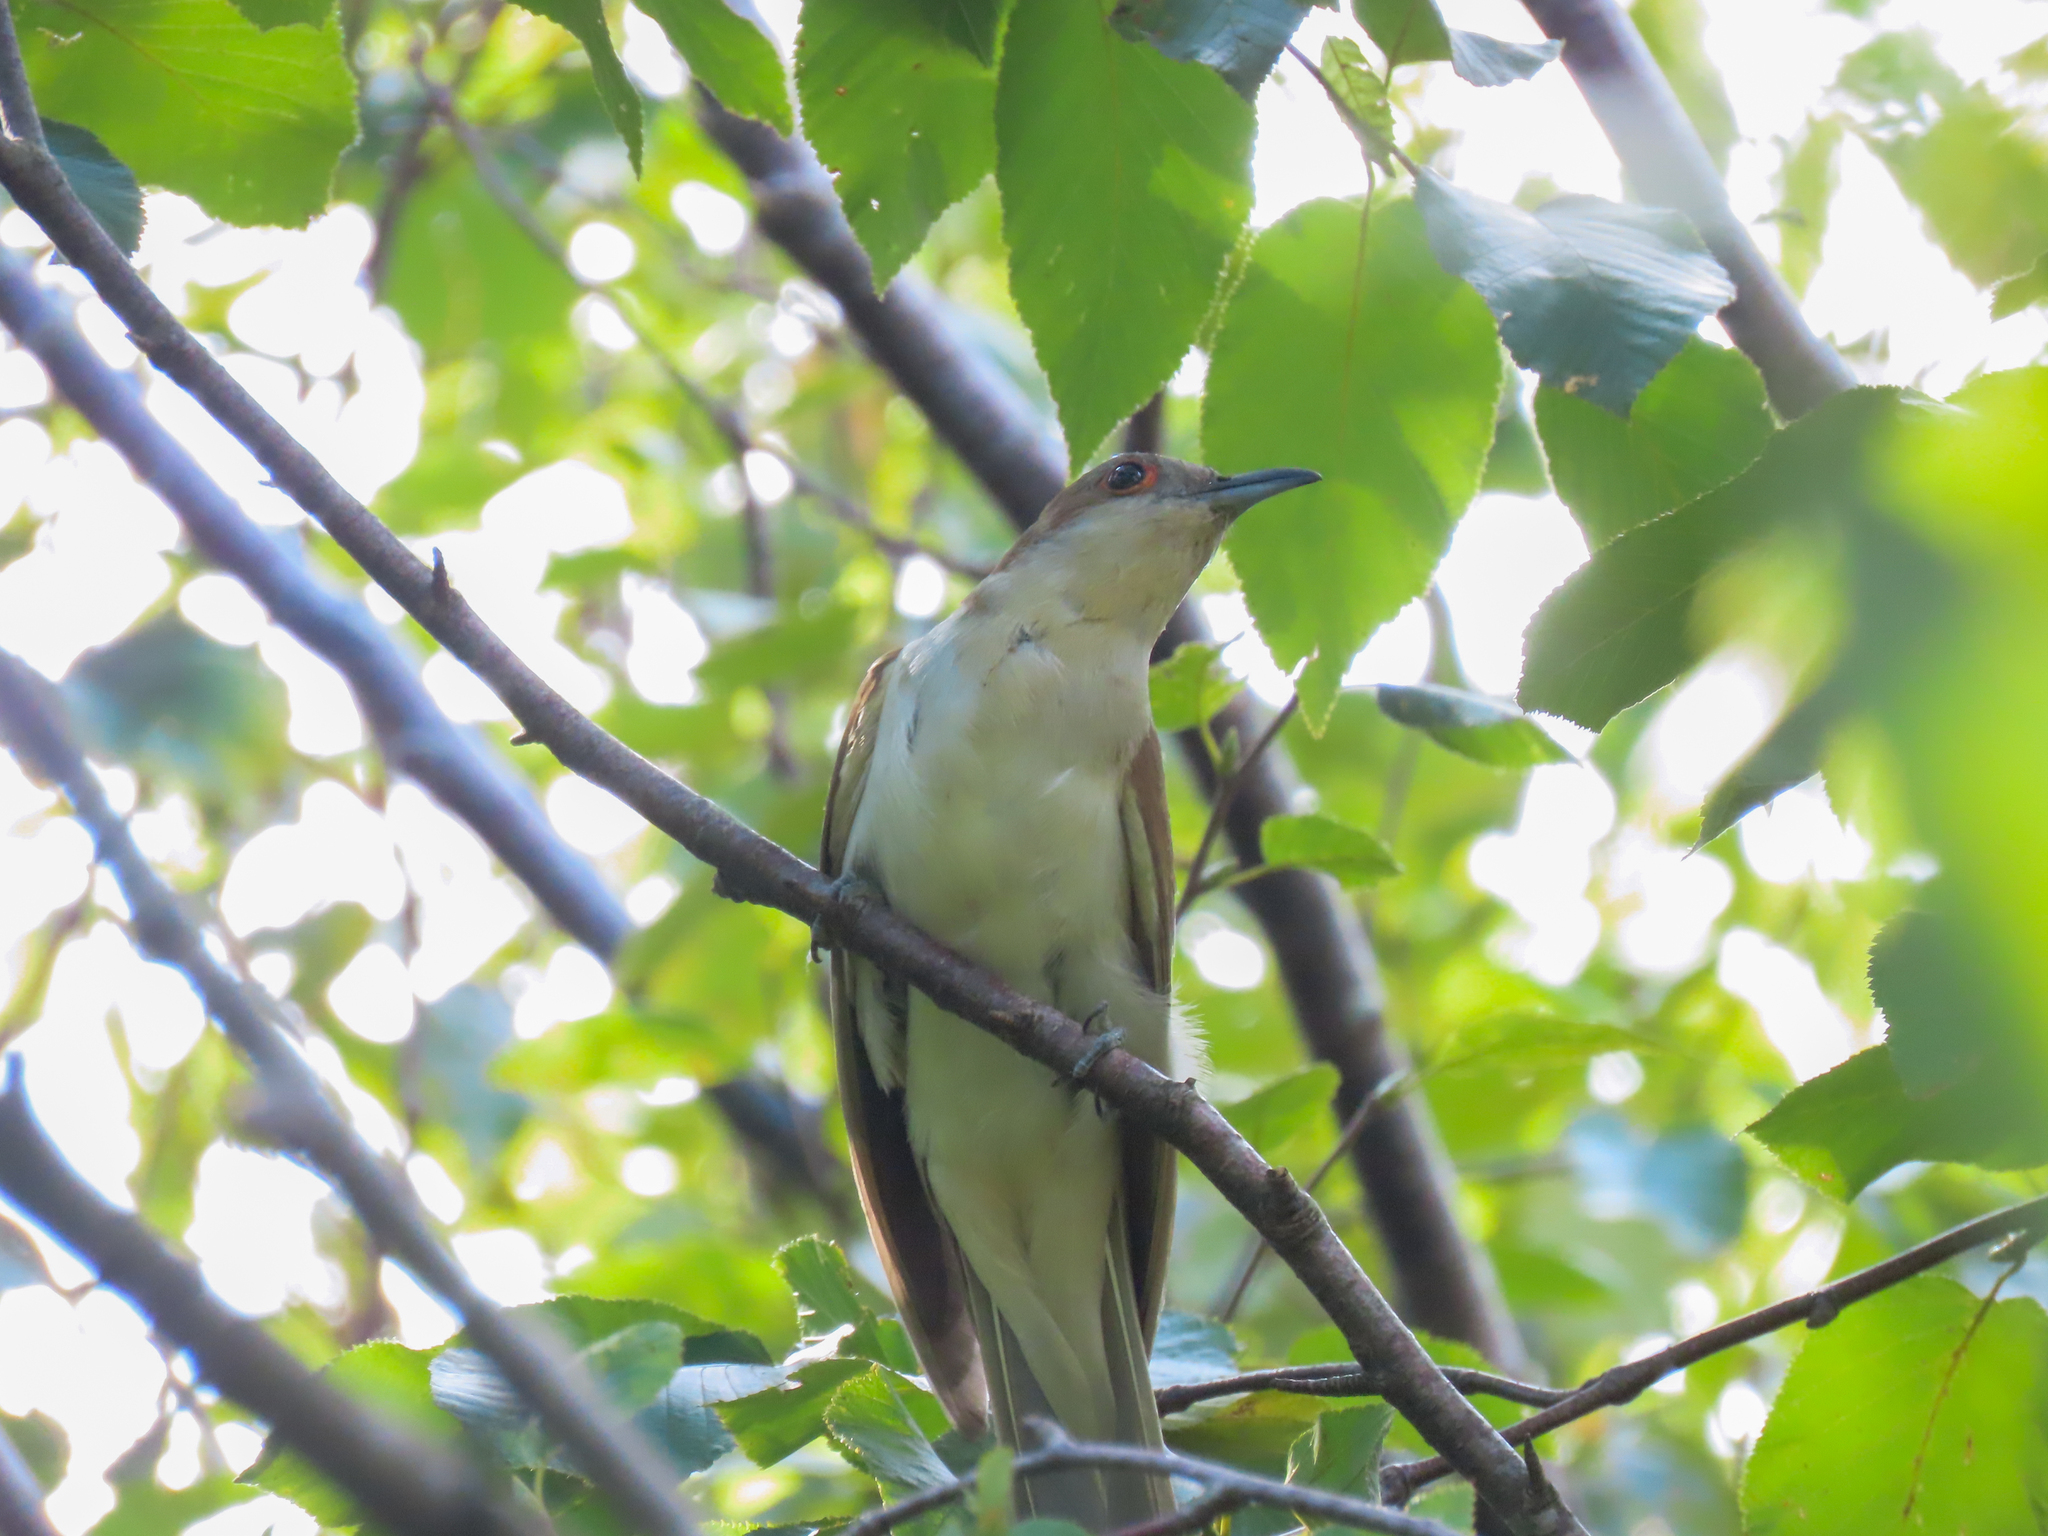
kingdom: Animalia
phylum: Chordata
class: Aves
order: Cuculiformes
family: Cuculidae
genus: Coccyzus
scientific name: Coccyzus erythropthalmus
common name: Black-billed cuckoo
